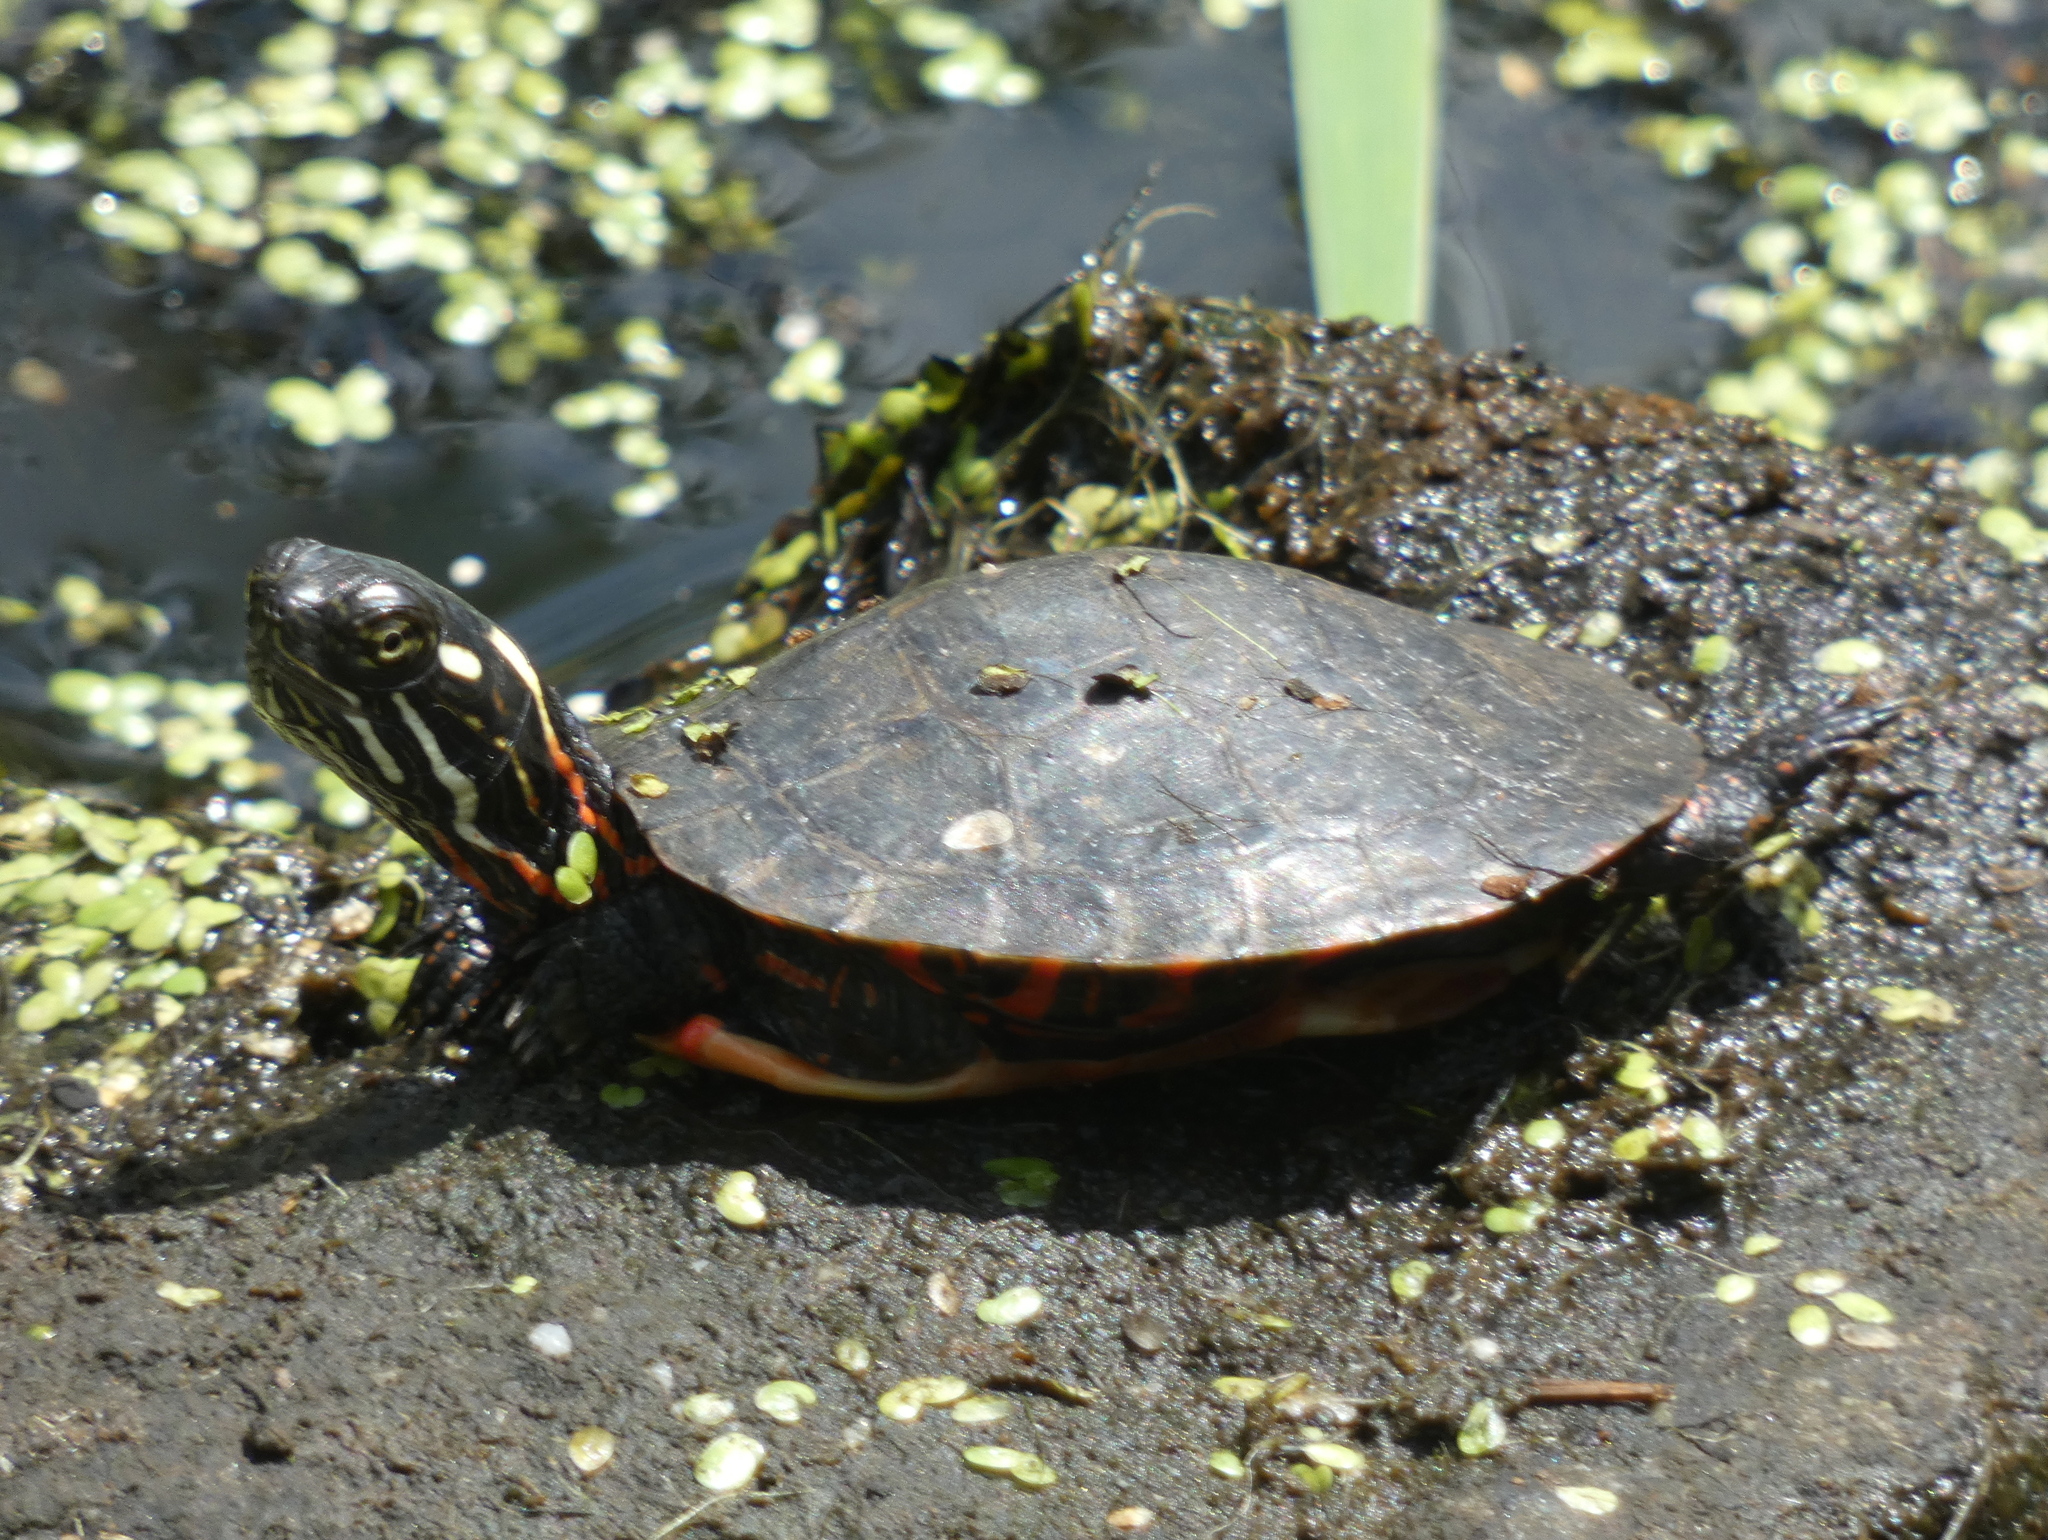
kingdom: Animalia
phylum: Chordata
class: Testudines
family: Emydidae
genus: Chrysemys
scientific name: Chrysemys picta
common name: Painted turtle
